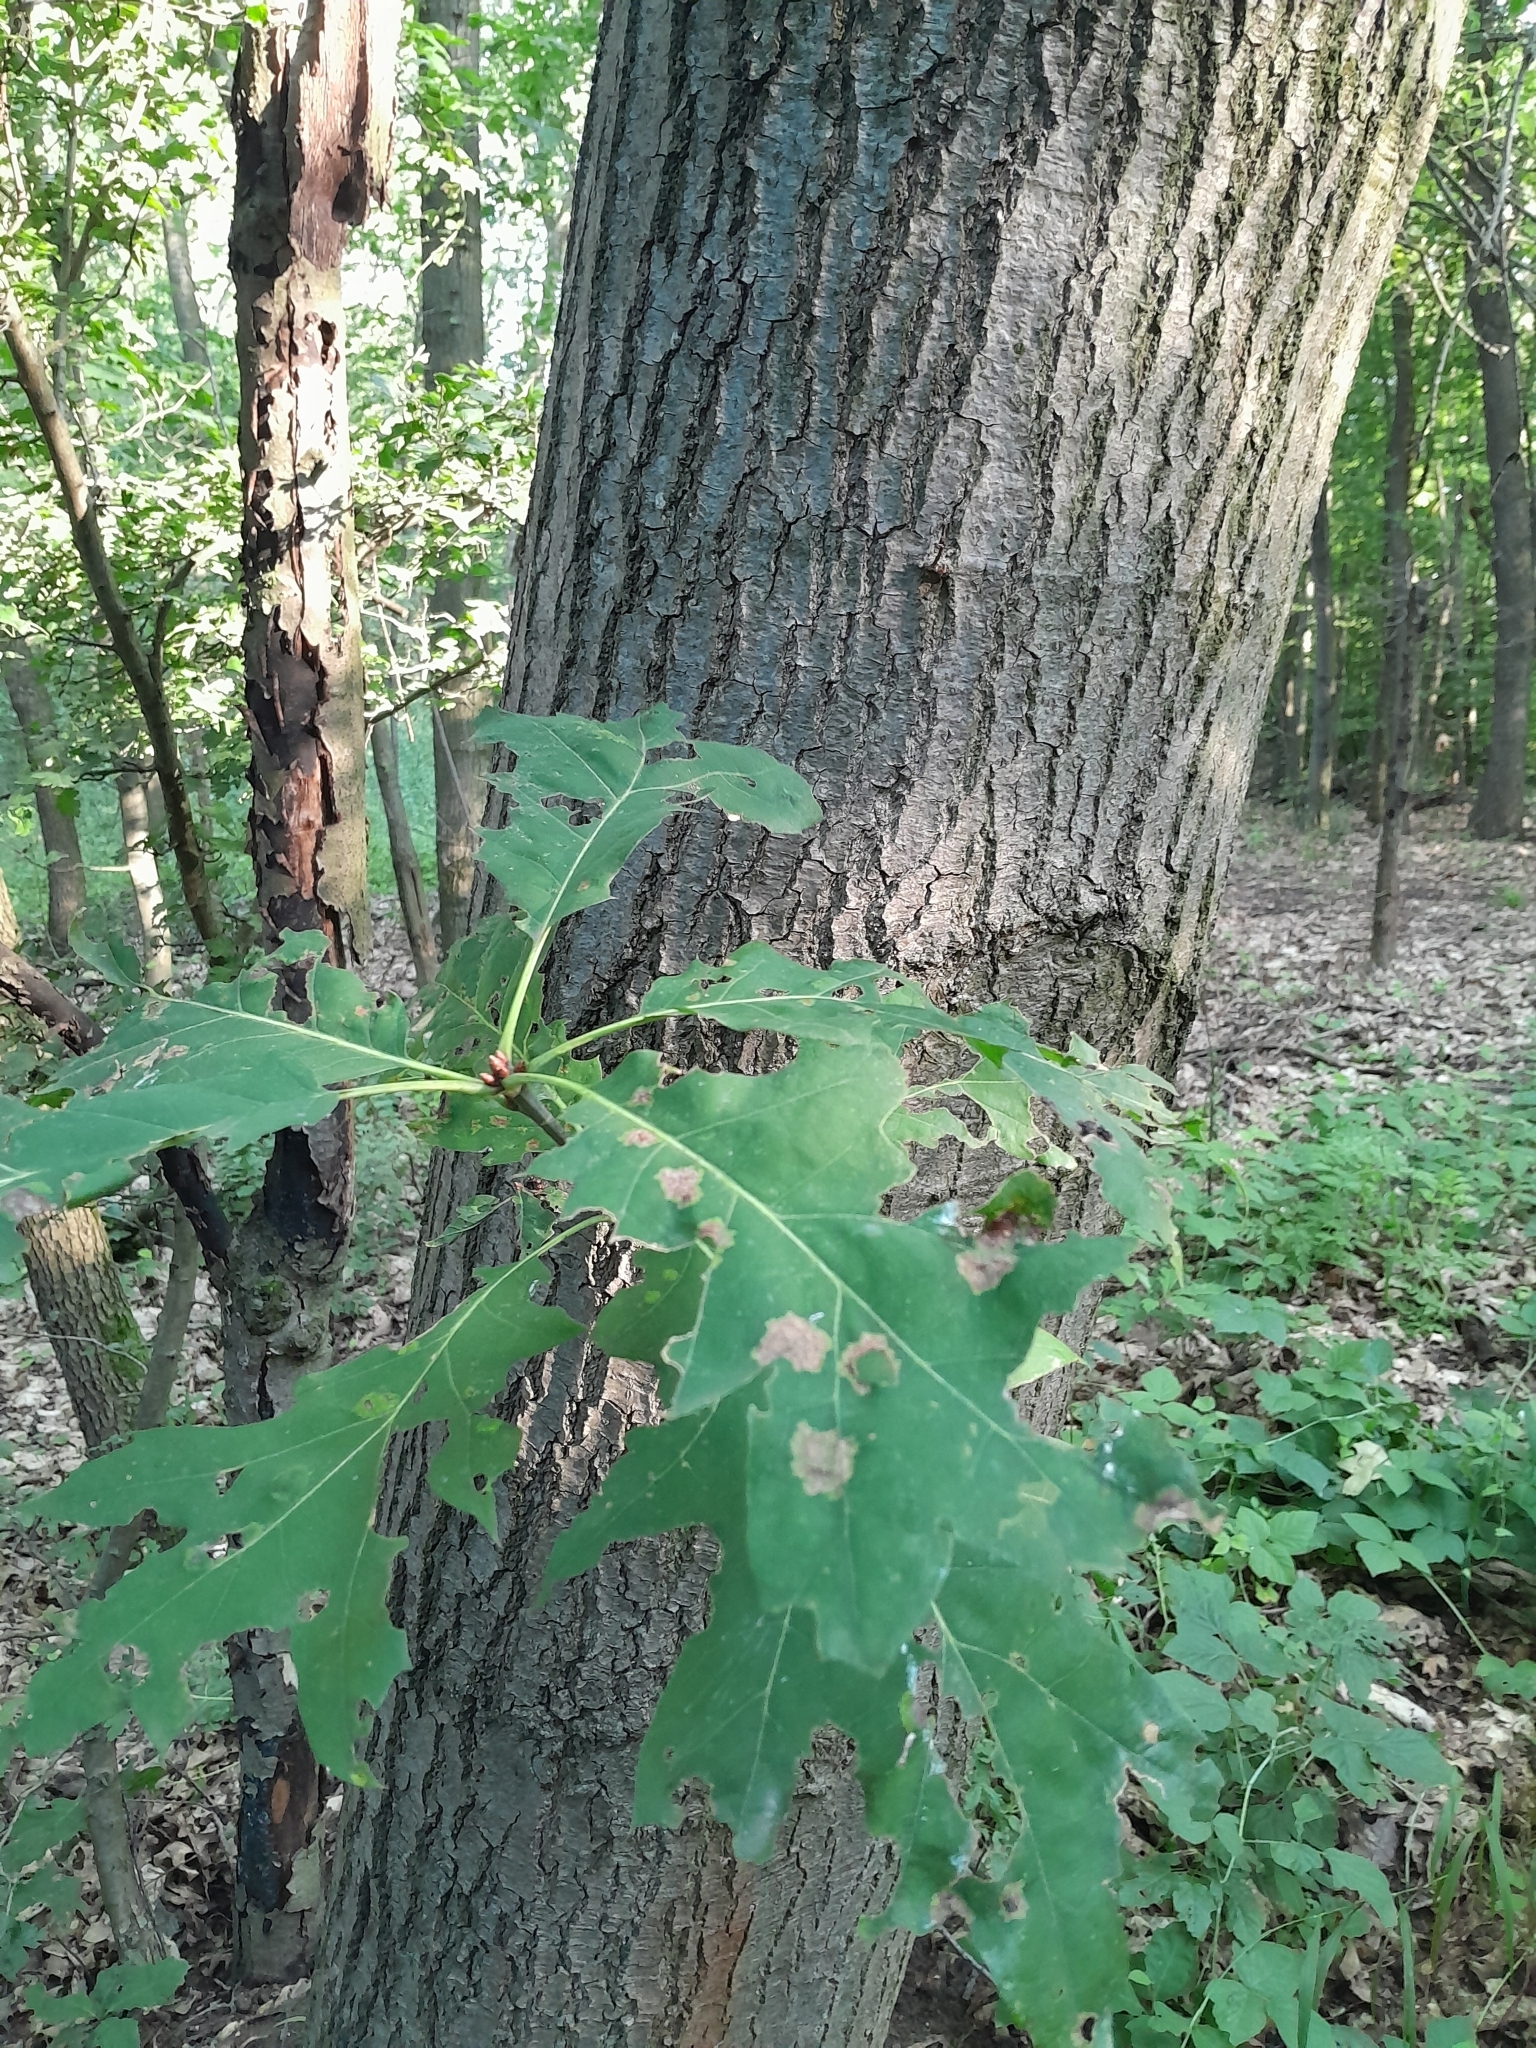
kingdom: Plantae
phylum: Tracheophyta
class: Magnoliopsida
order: Fagales
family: Fagaceae
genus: Quercus
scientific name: Quercus rubra
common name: Red oak
